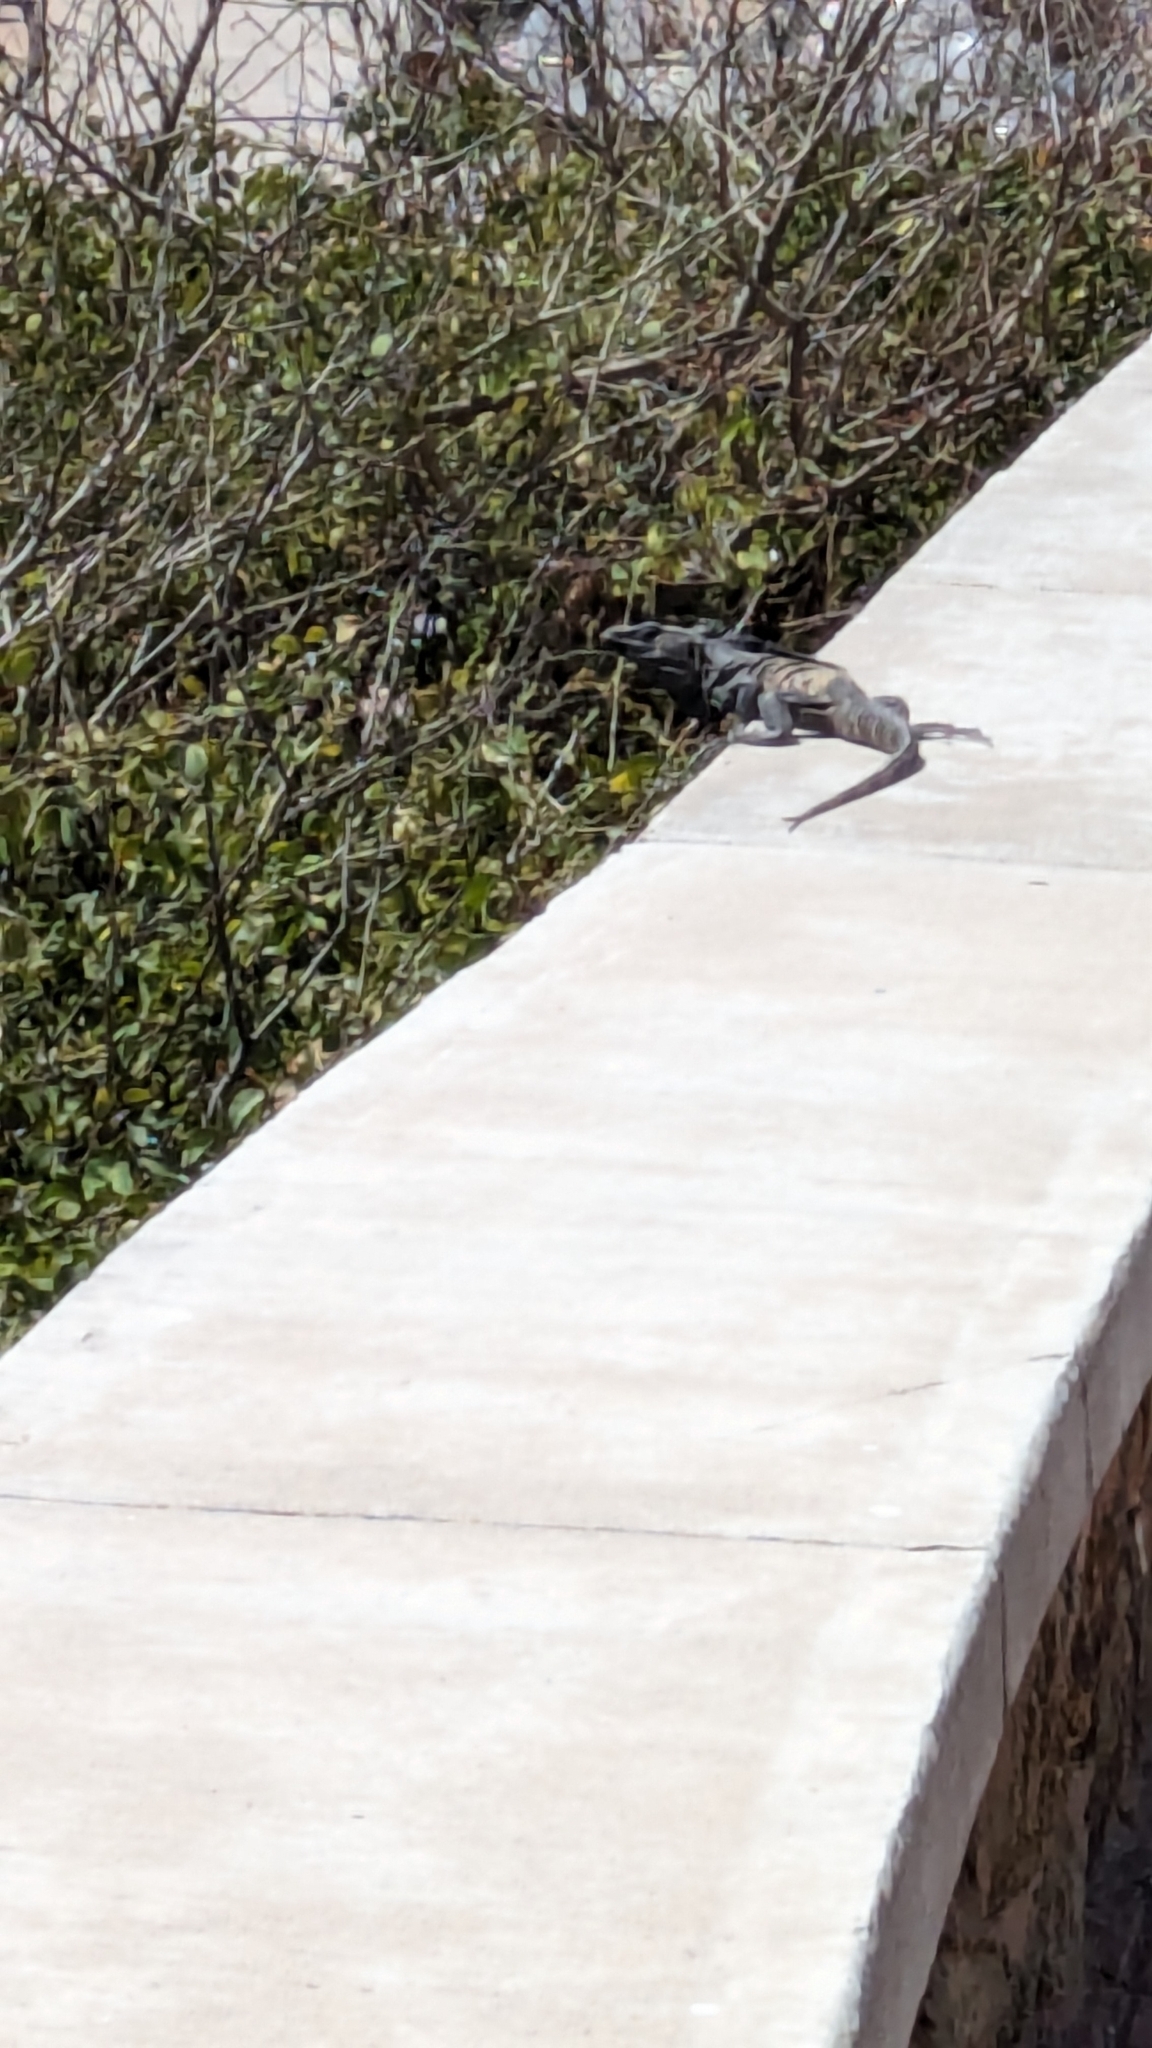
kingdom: Animalia
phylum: Chordata
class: Squamata
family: Iguanidae
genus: Ctenosaura
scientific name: Ctenosaura pectinata
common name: Guerreran spiny-tailed iguana
